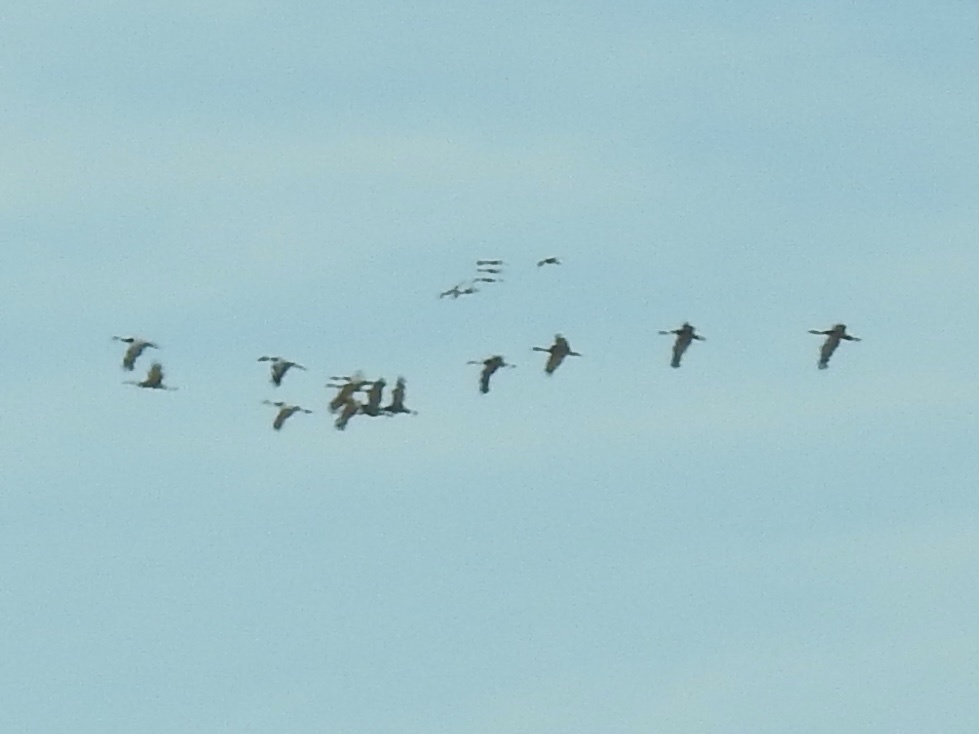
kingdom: Animalia
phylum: Chordata
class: Aves
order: Gruiformes
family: Gruidae
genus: Grus
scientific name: Grus canadensis
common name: Sandhill crane
